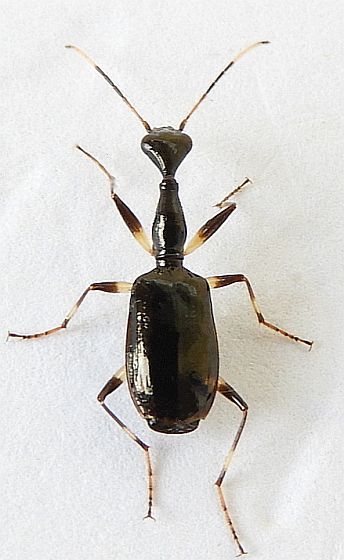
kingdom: Animalia
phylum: Arthropoda
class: Insecta
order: Coleoptera
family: Carabidae
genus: Colliuris
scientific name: Colliuris lioptera
